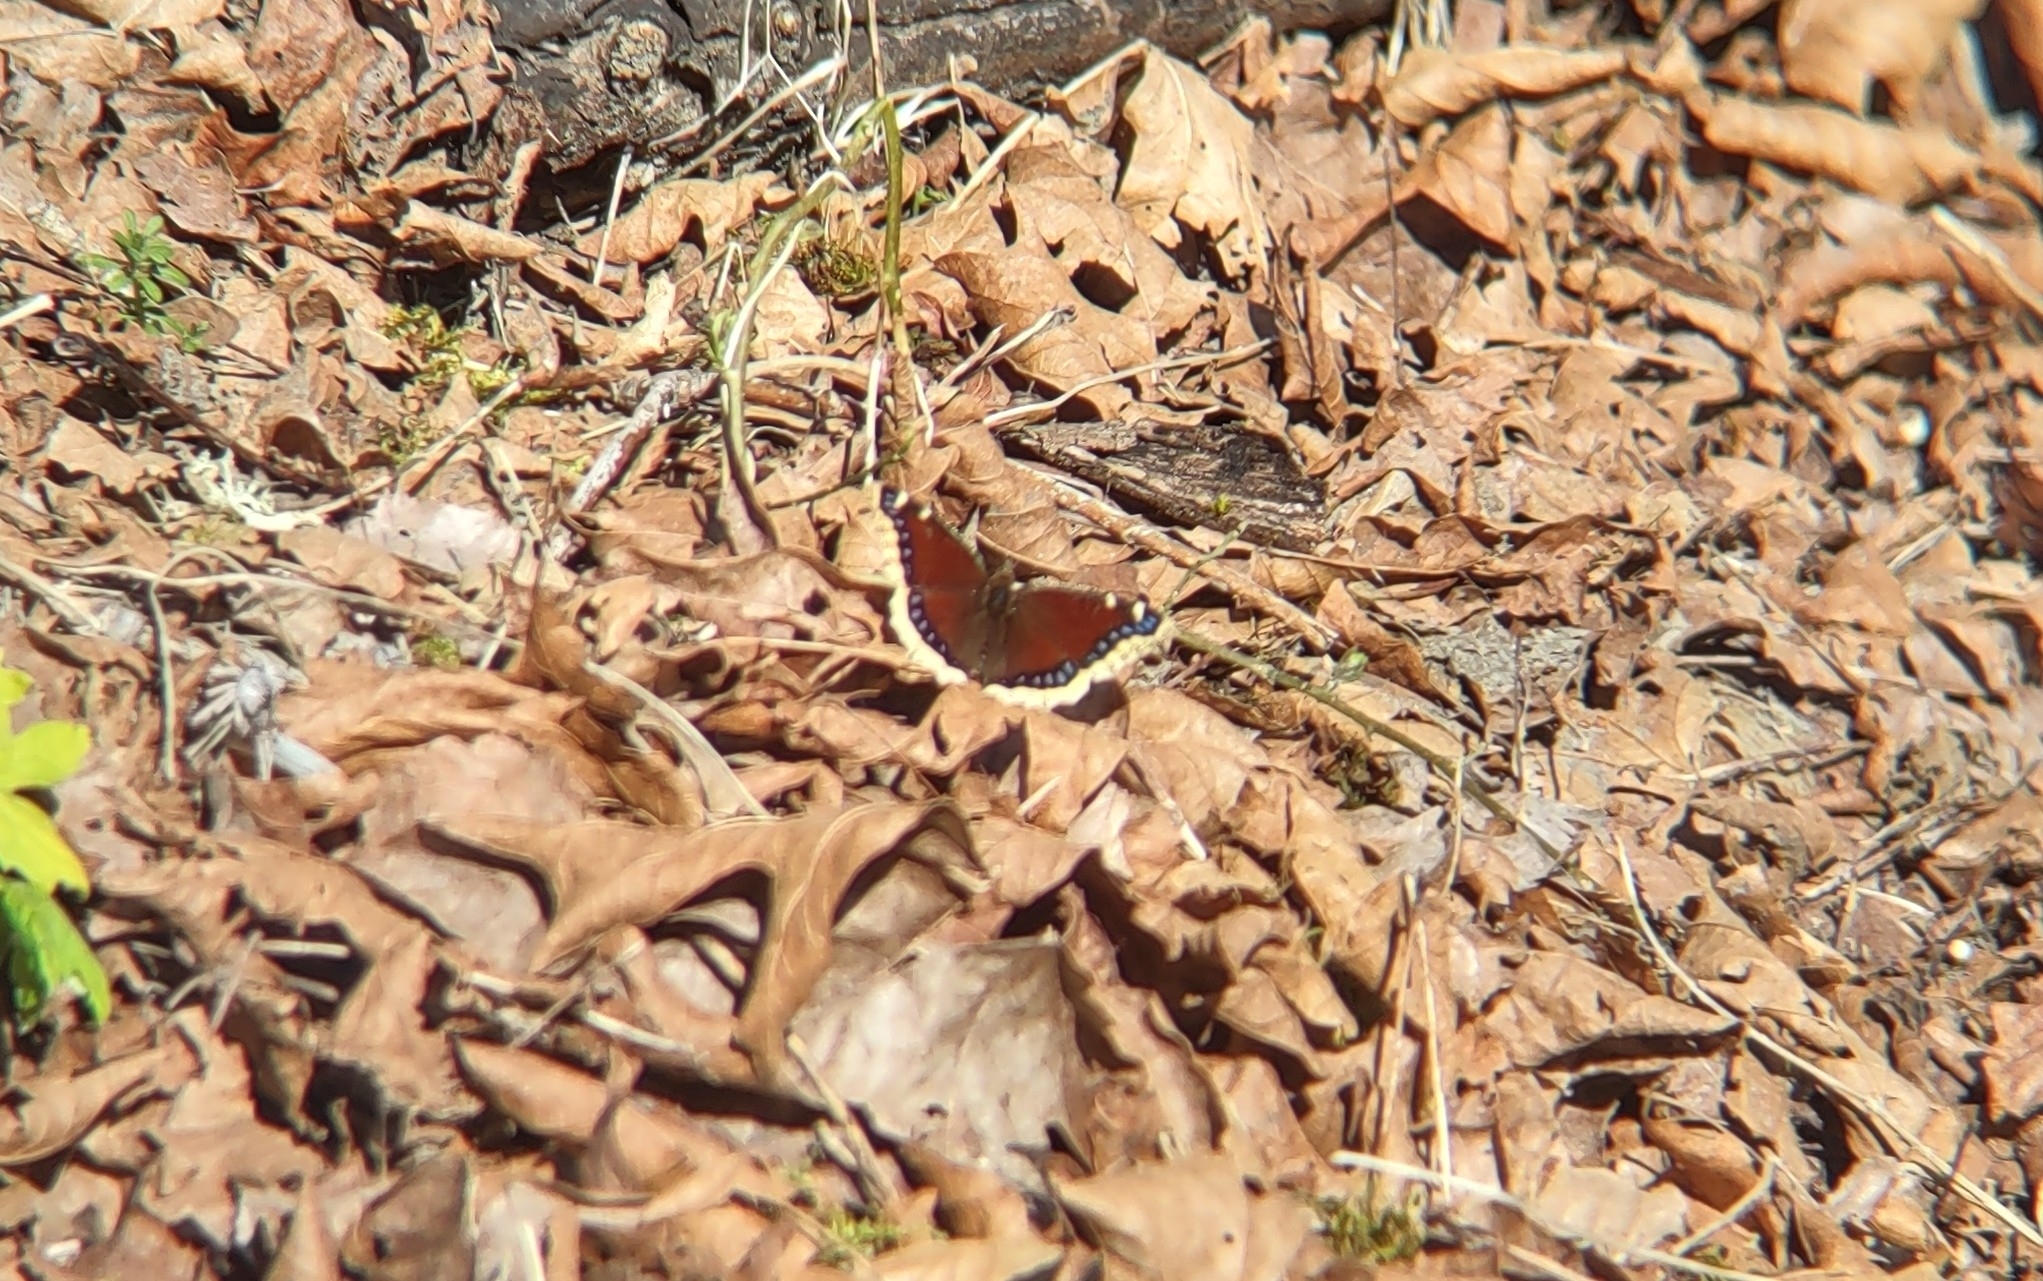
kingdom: Animalia
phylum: Arthropoda
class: Insecta
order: Lepidoptera
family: Nymphalidae
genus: Nymphalis
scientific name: Nymphalis antiopa
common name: Camberwell beauty
